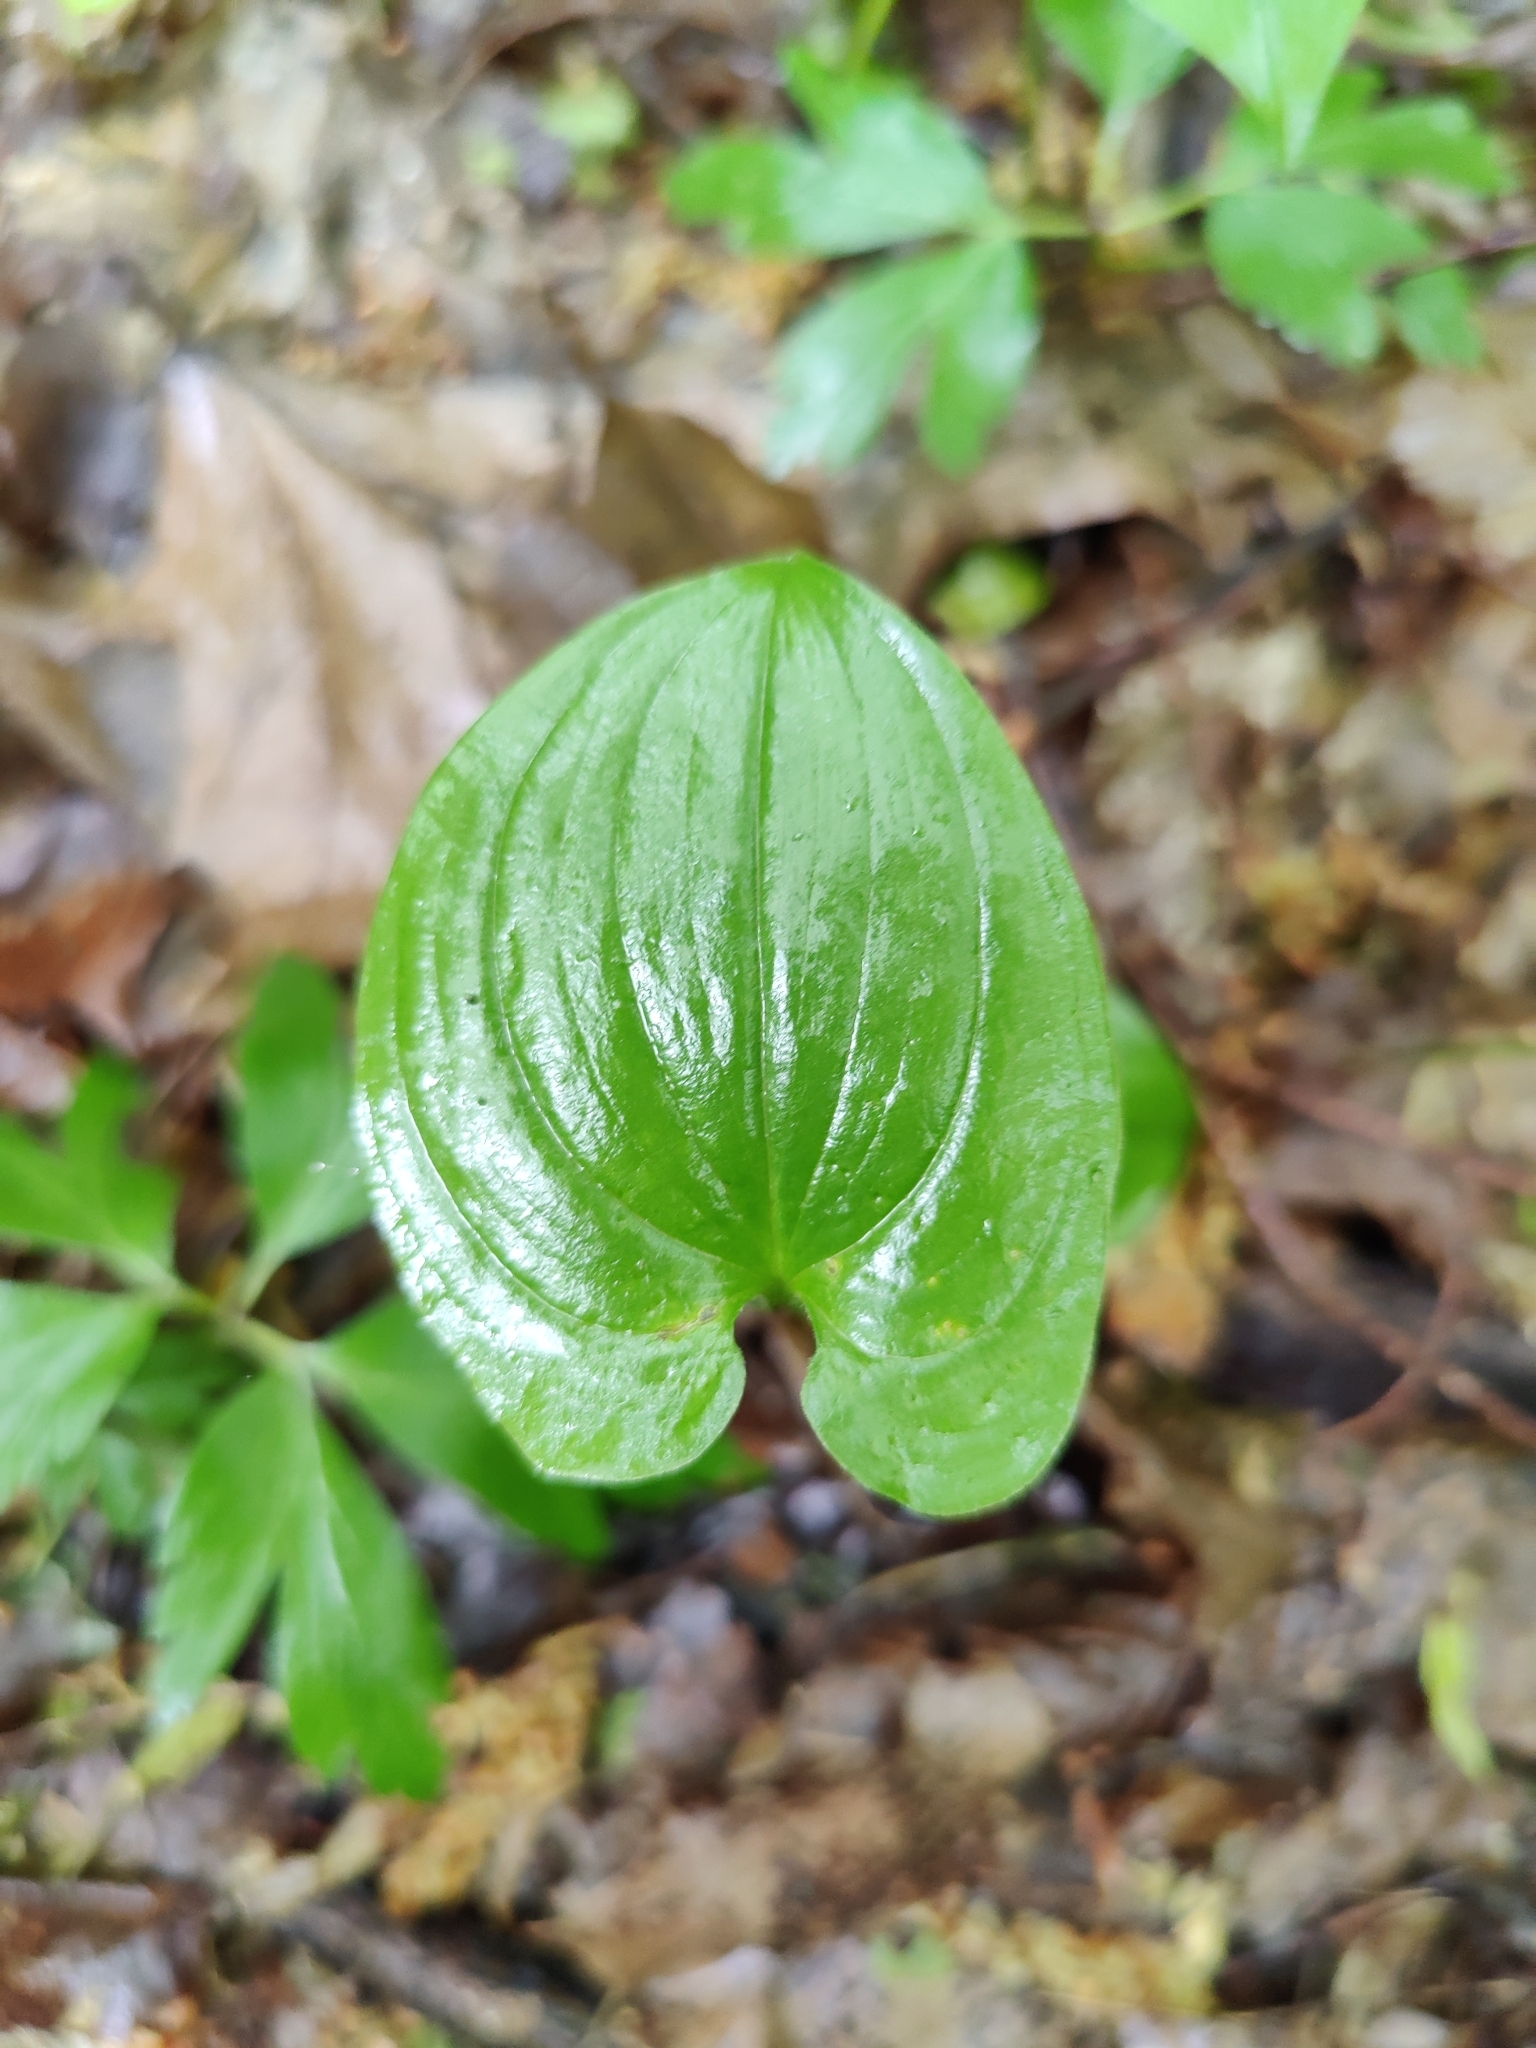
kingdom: Plantae
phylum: Tracheophyta
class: Liliopsida
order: Asparagales
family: Asparagaceae
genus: Maianthemum
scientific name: Maianthemum bifolium
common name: May lily
